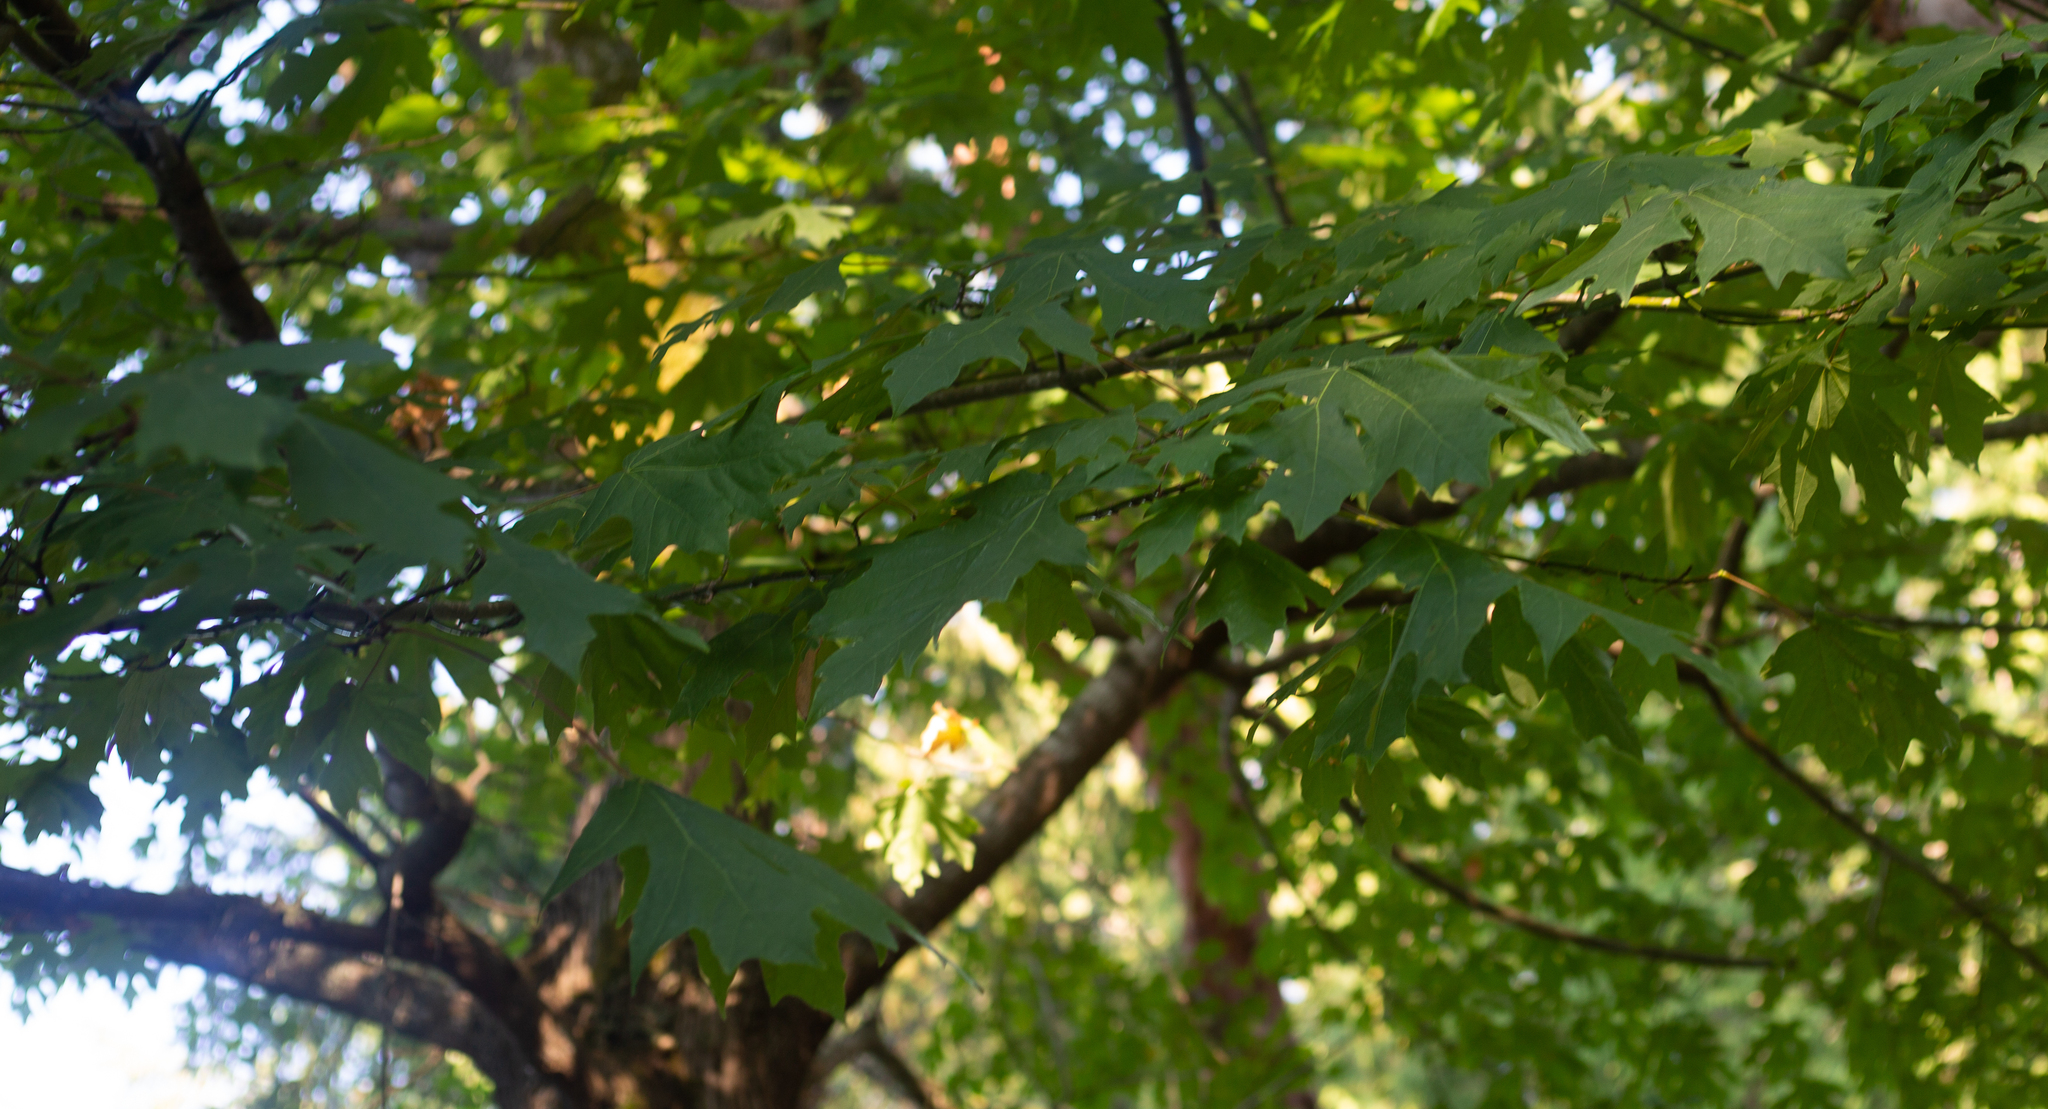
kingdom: Plantae
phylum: Tracheophyta
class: Magnoliopsida
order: Sapindales
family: Sapindaceae
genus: Acer
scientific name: Acer macrophyllum
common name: Oregon maple
